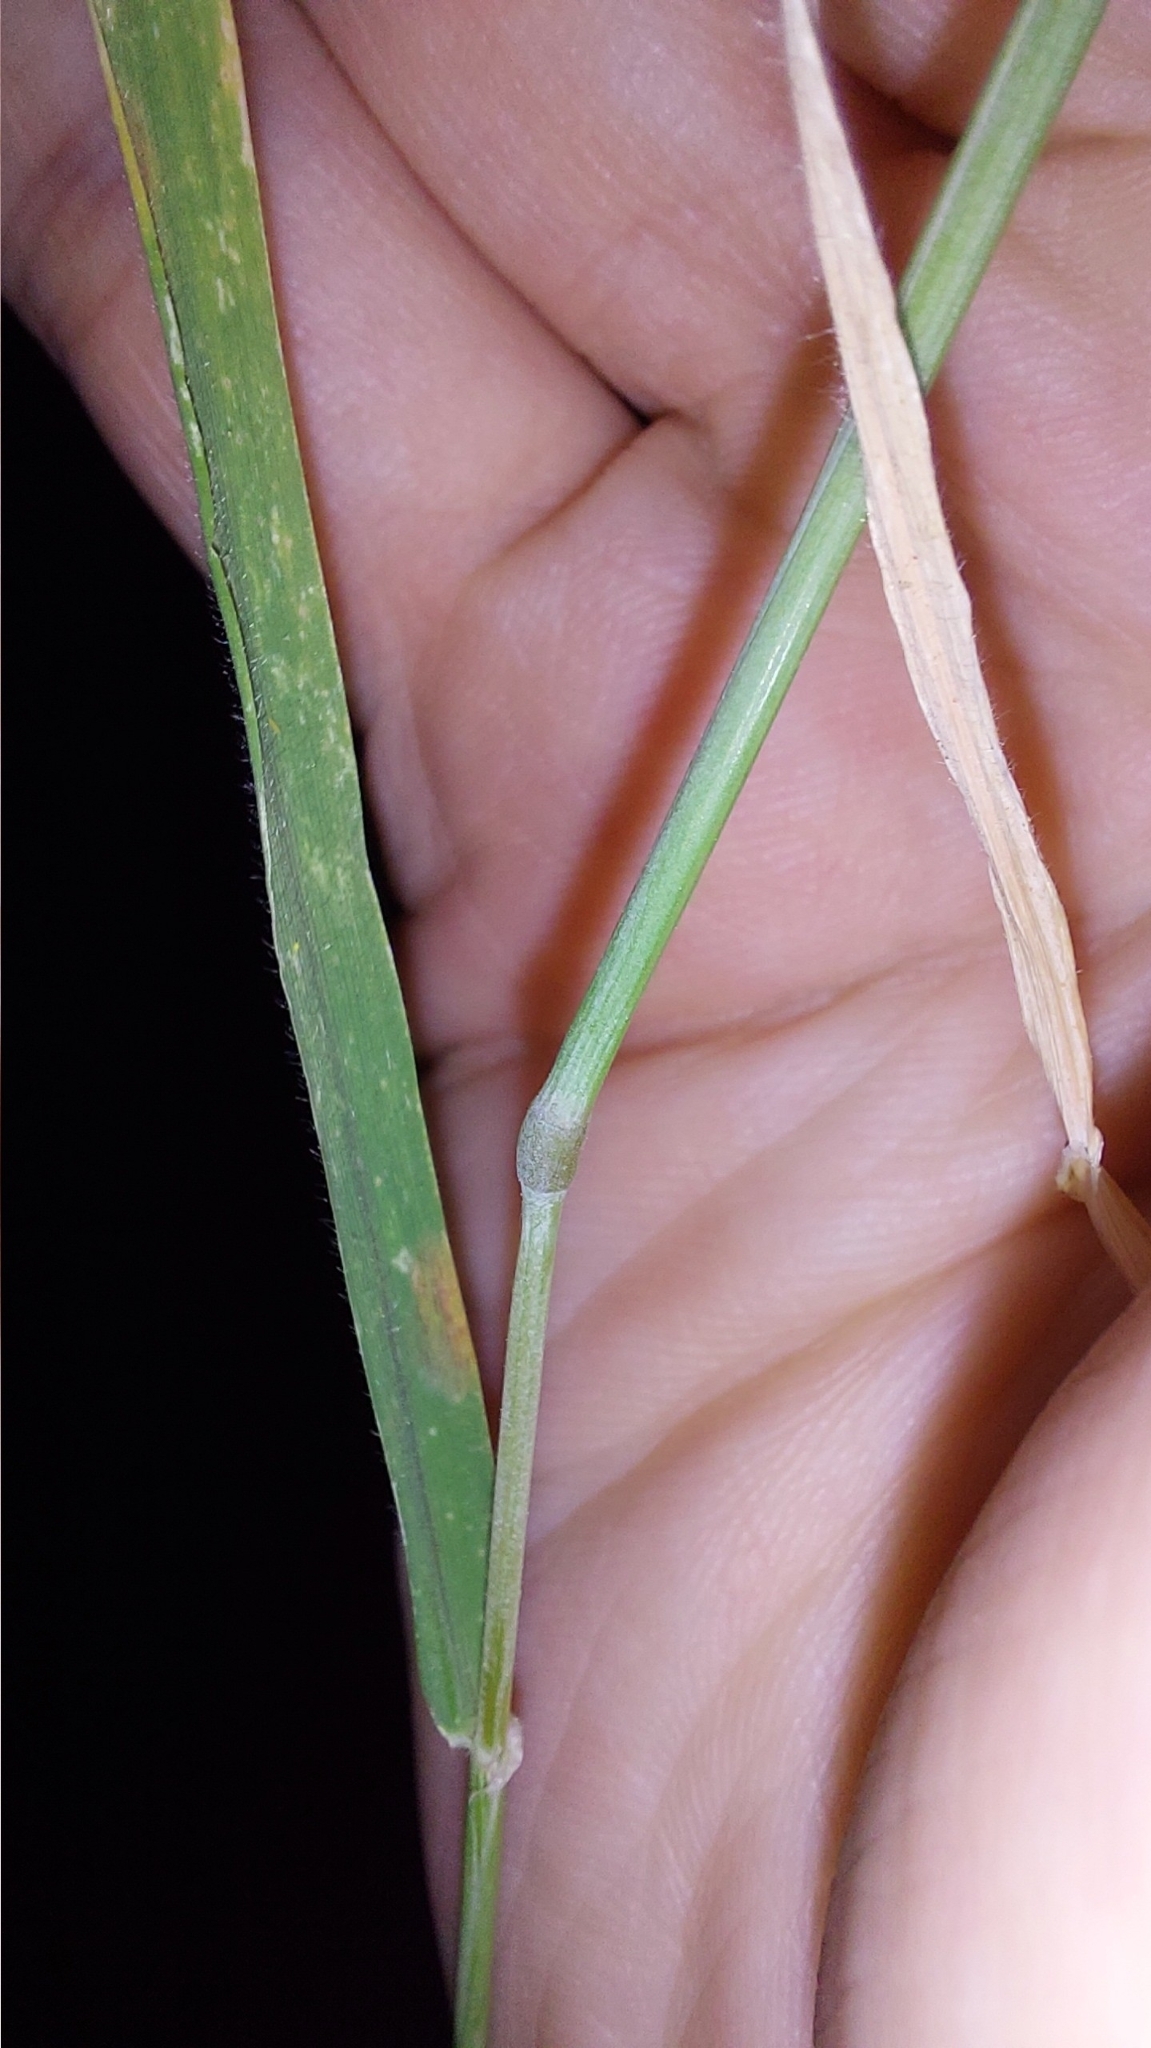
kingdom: Plantae
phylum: Tracheophyta
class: Liliopsida
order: Poales
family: Poaceae
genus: Hordeum
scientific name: Hordeum murinum
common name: Wall barley
